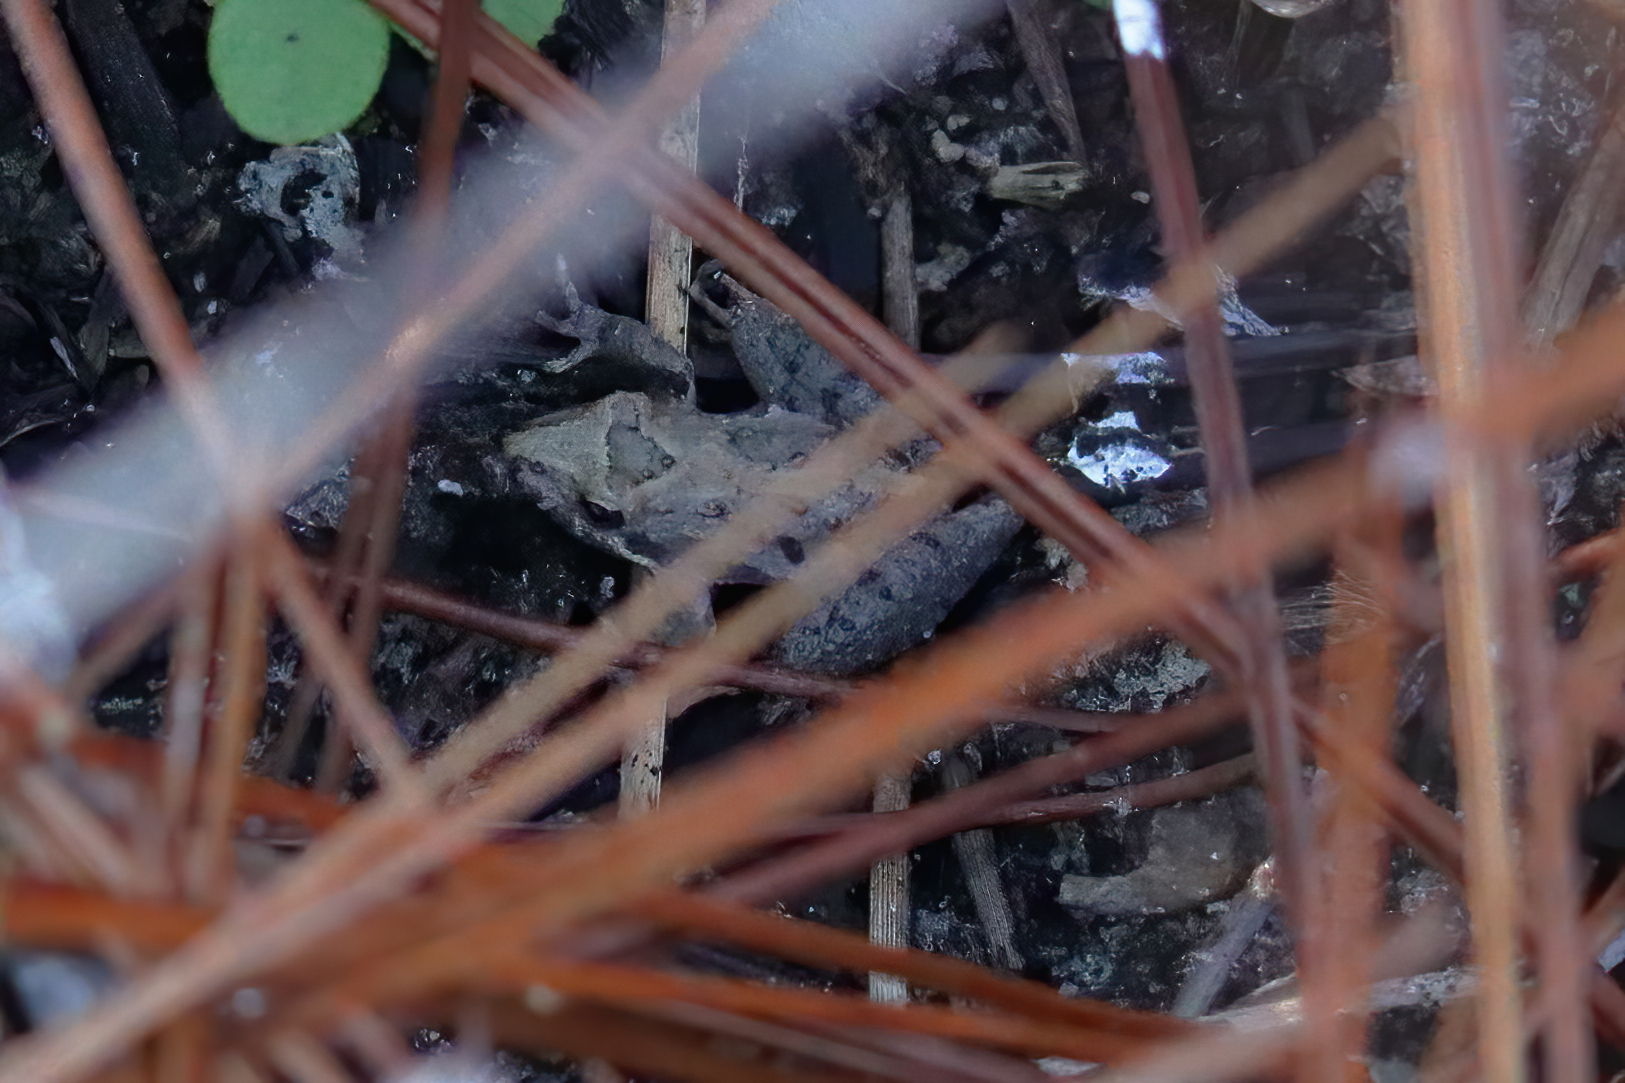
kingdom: Animalia
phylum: Chordata
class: Amphibia
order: Anura
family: Hylidae
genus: Acris
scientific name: Acris gryllus
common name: Southern cricket frog
